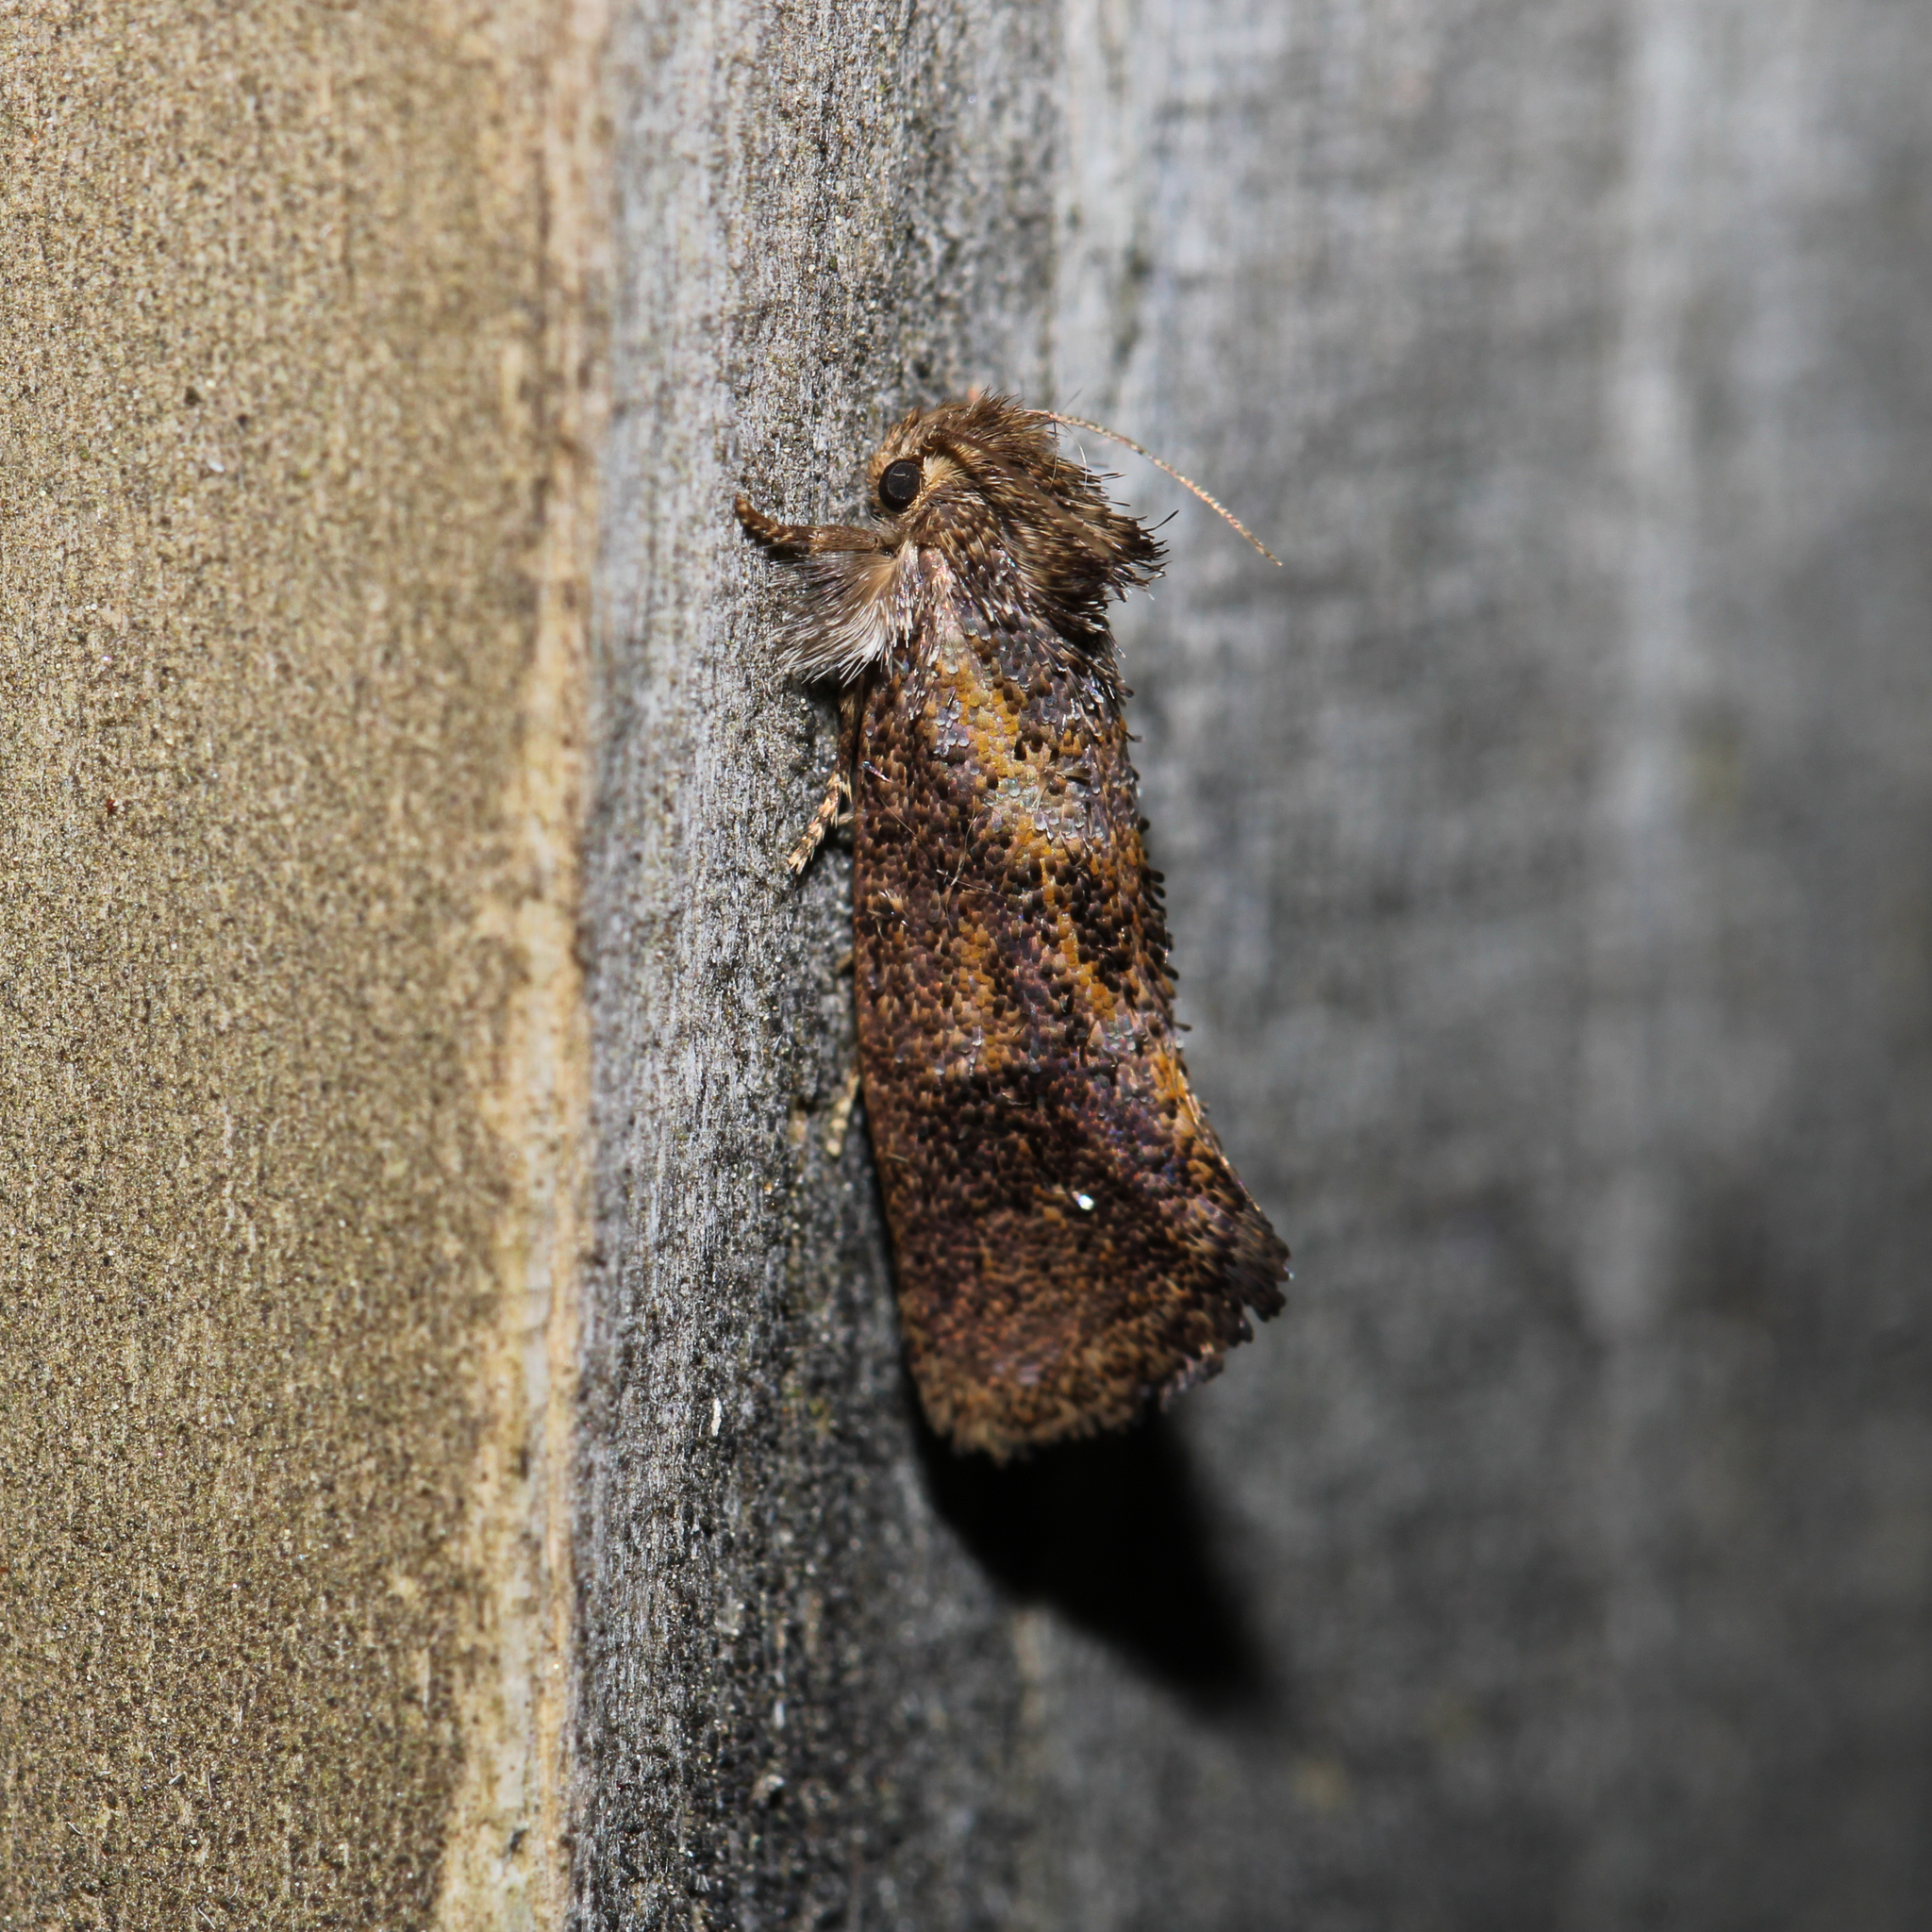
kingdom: Animalia
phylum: Arthropoda
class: Insecta
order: Lepidoptera
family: Tineidae
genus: Acrolophus
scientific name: Acrolophus panamae
